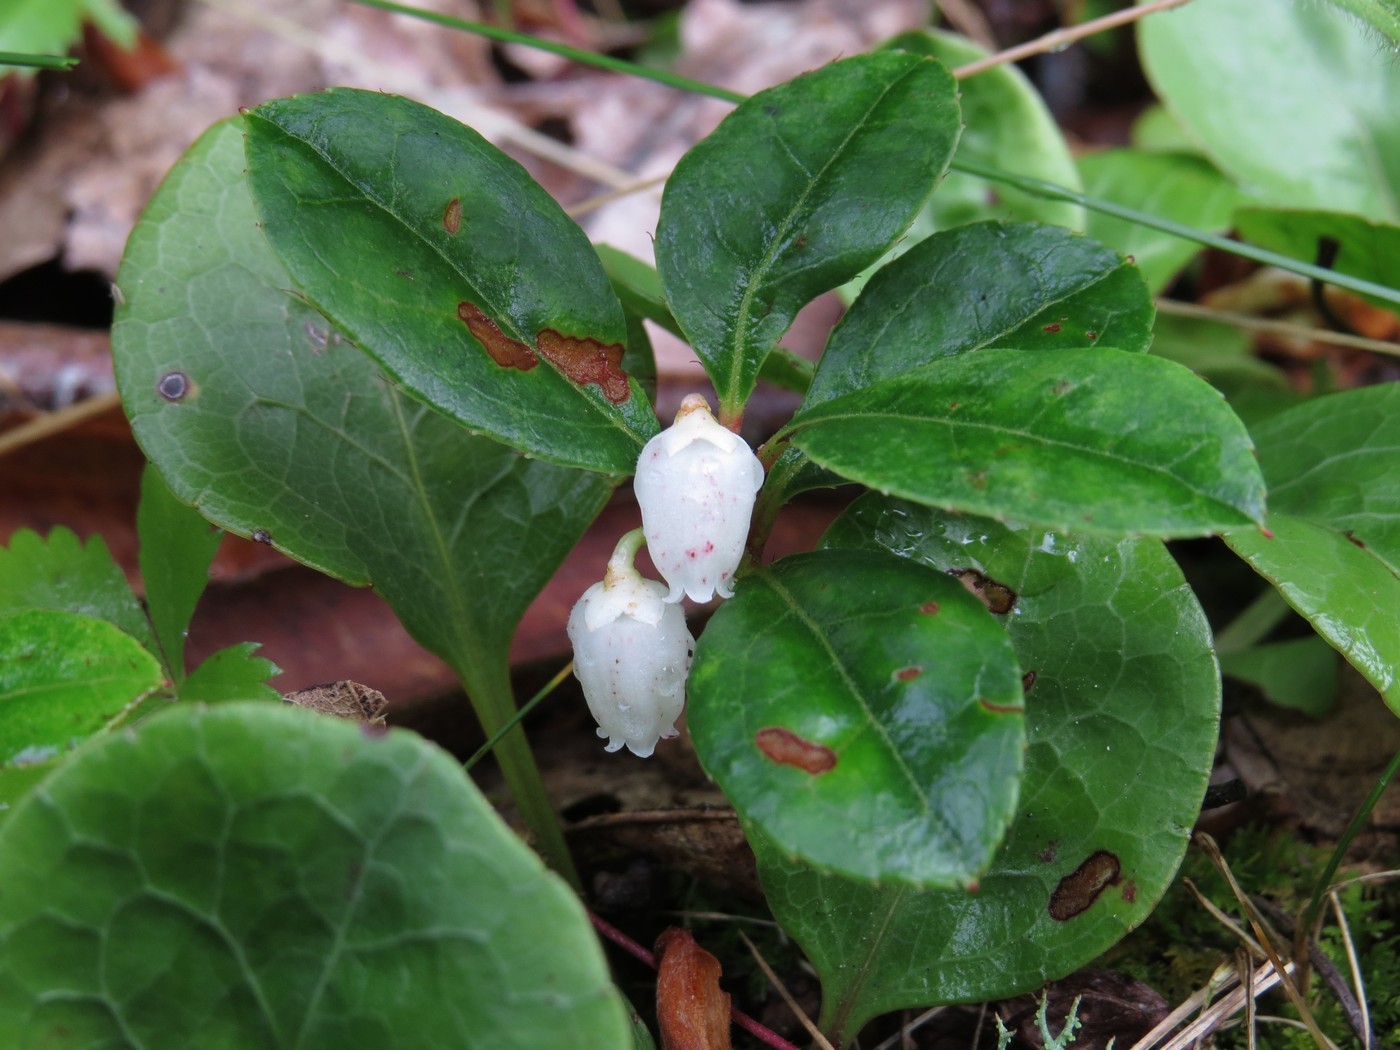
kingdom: Plantae
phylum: Tracheophyta
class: Magnoliopsida
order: Ericales
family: Ericaceae
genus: Gaultheria
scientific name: Gaultheria procumbens
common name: Checkerberry
